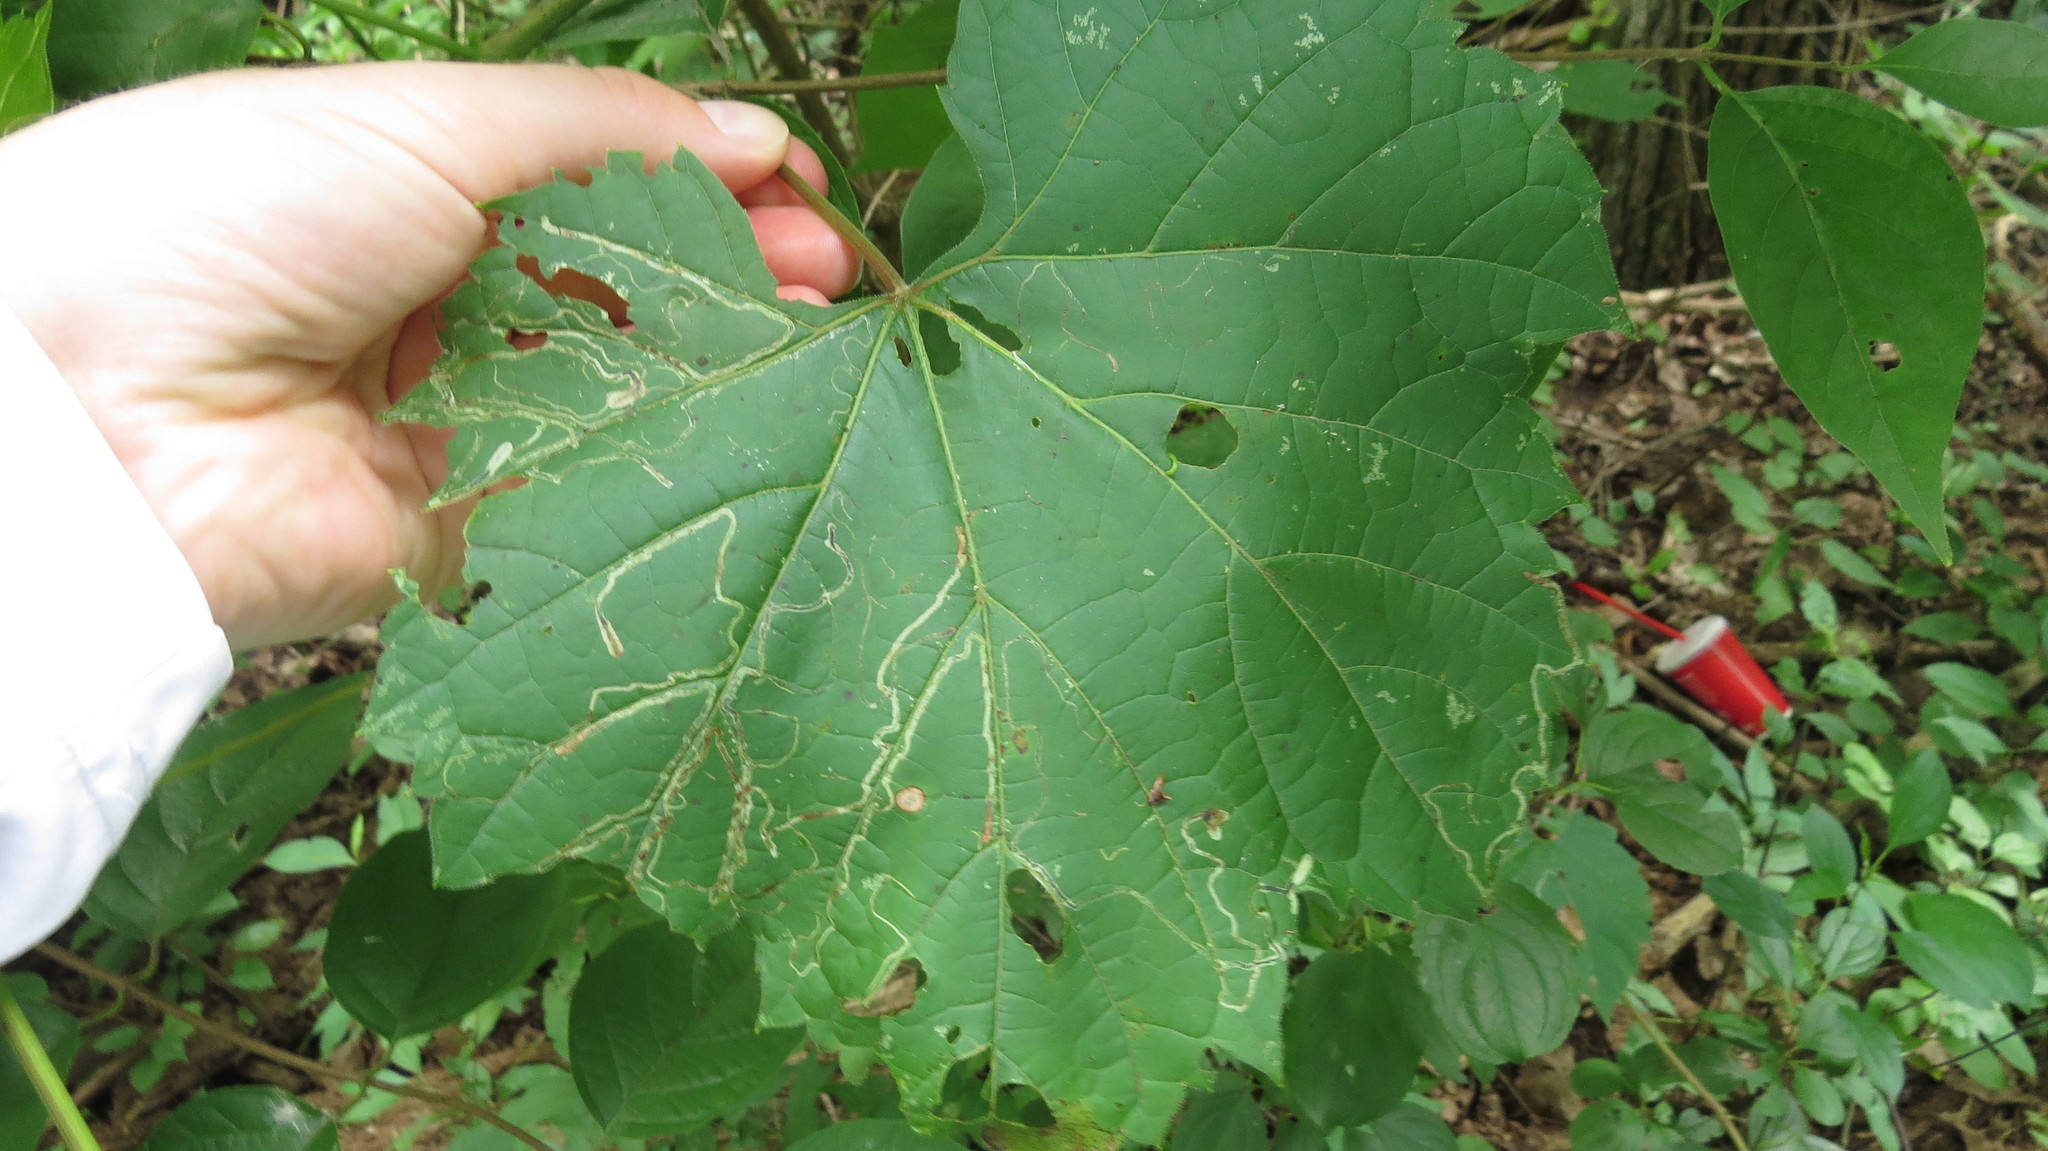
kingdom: Animalia
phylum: Arthropoda
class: Insecta
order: Lepidoptera
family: Gracillariidae
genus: Phyllocnistis
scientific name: Phyllocnistis vitifoliella
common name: Grape leaf-miner moth
